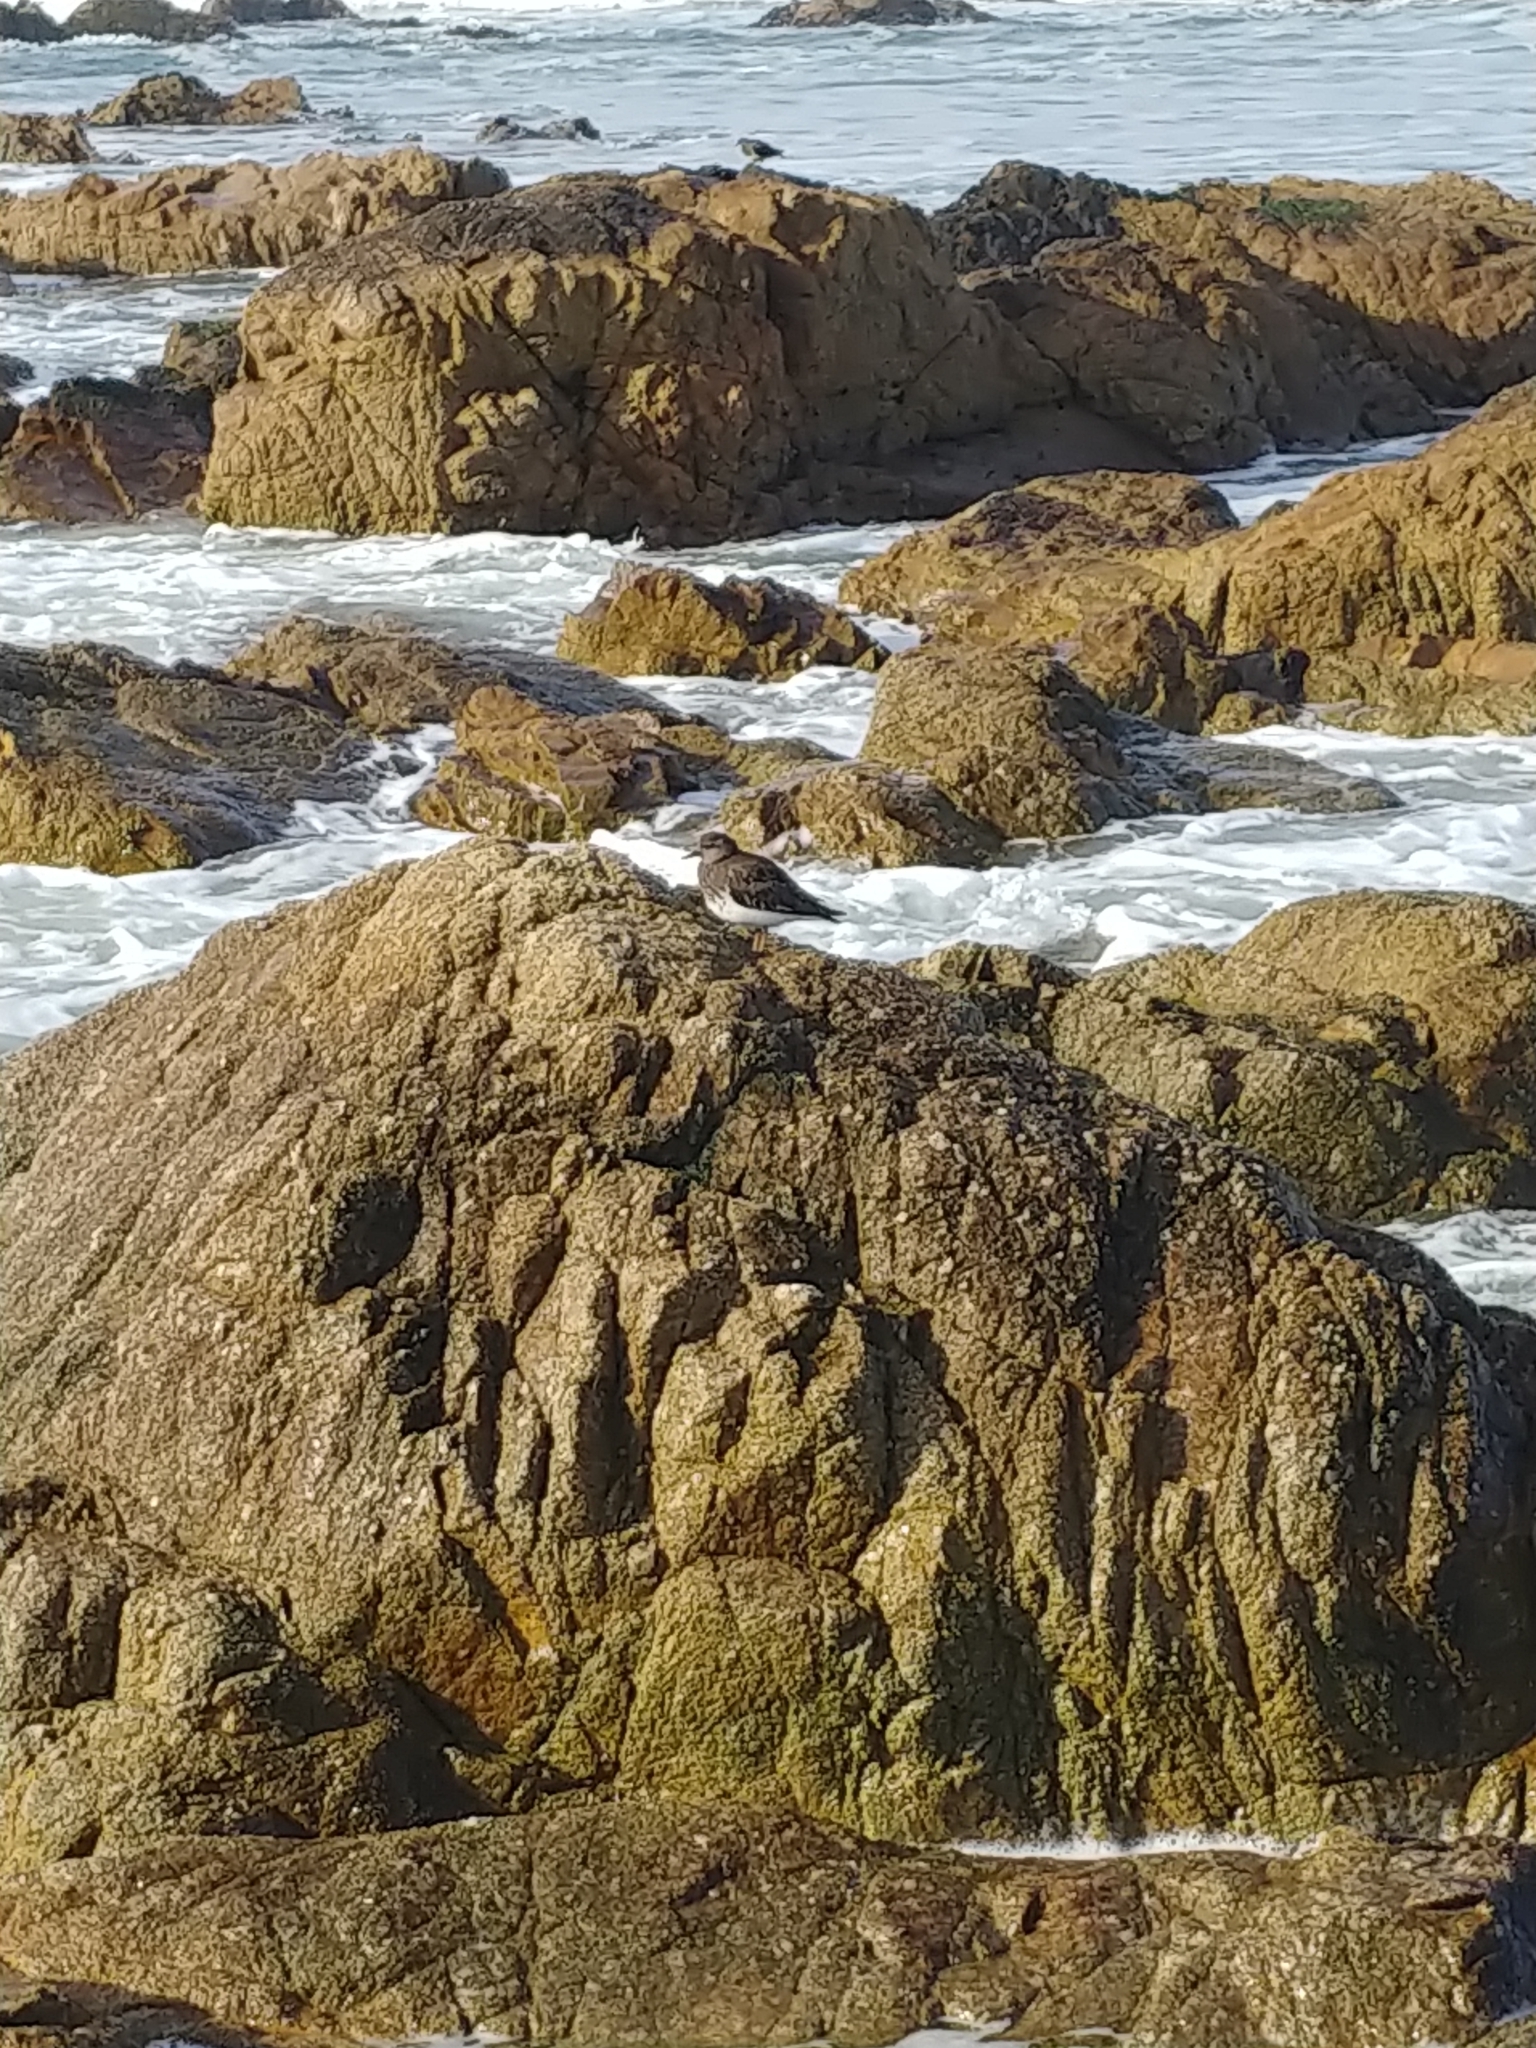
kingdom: Animalia
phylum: Chordata
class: Aves
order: Charadriiformes
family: Scolopacidae
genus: Arenaria
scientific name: Arenaria melanocephala
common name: Black turnstone
